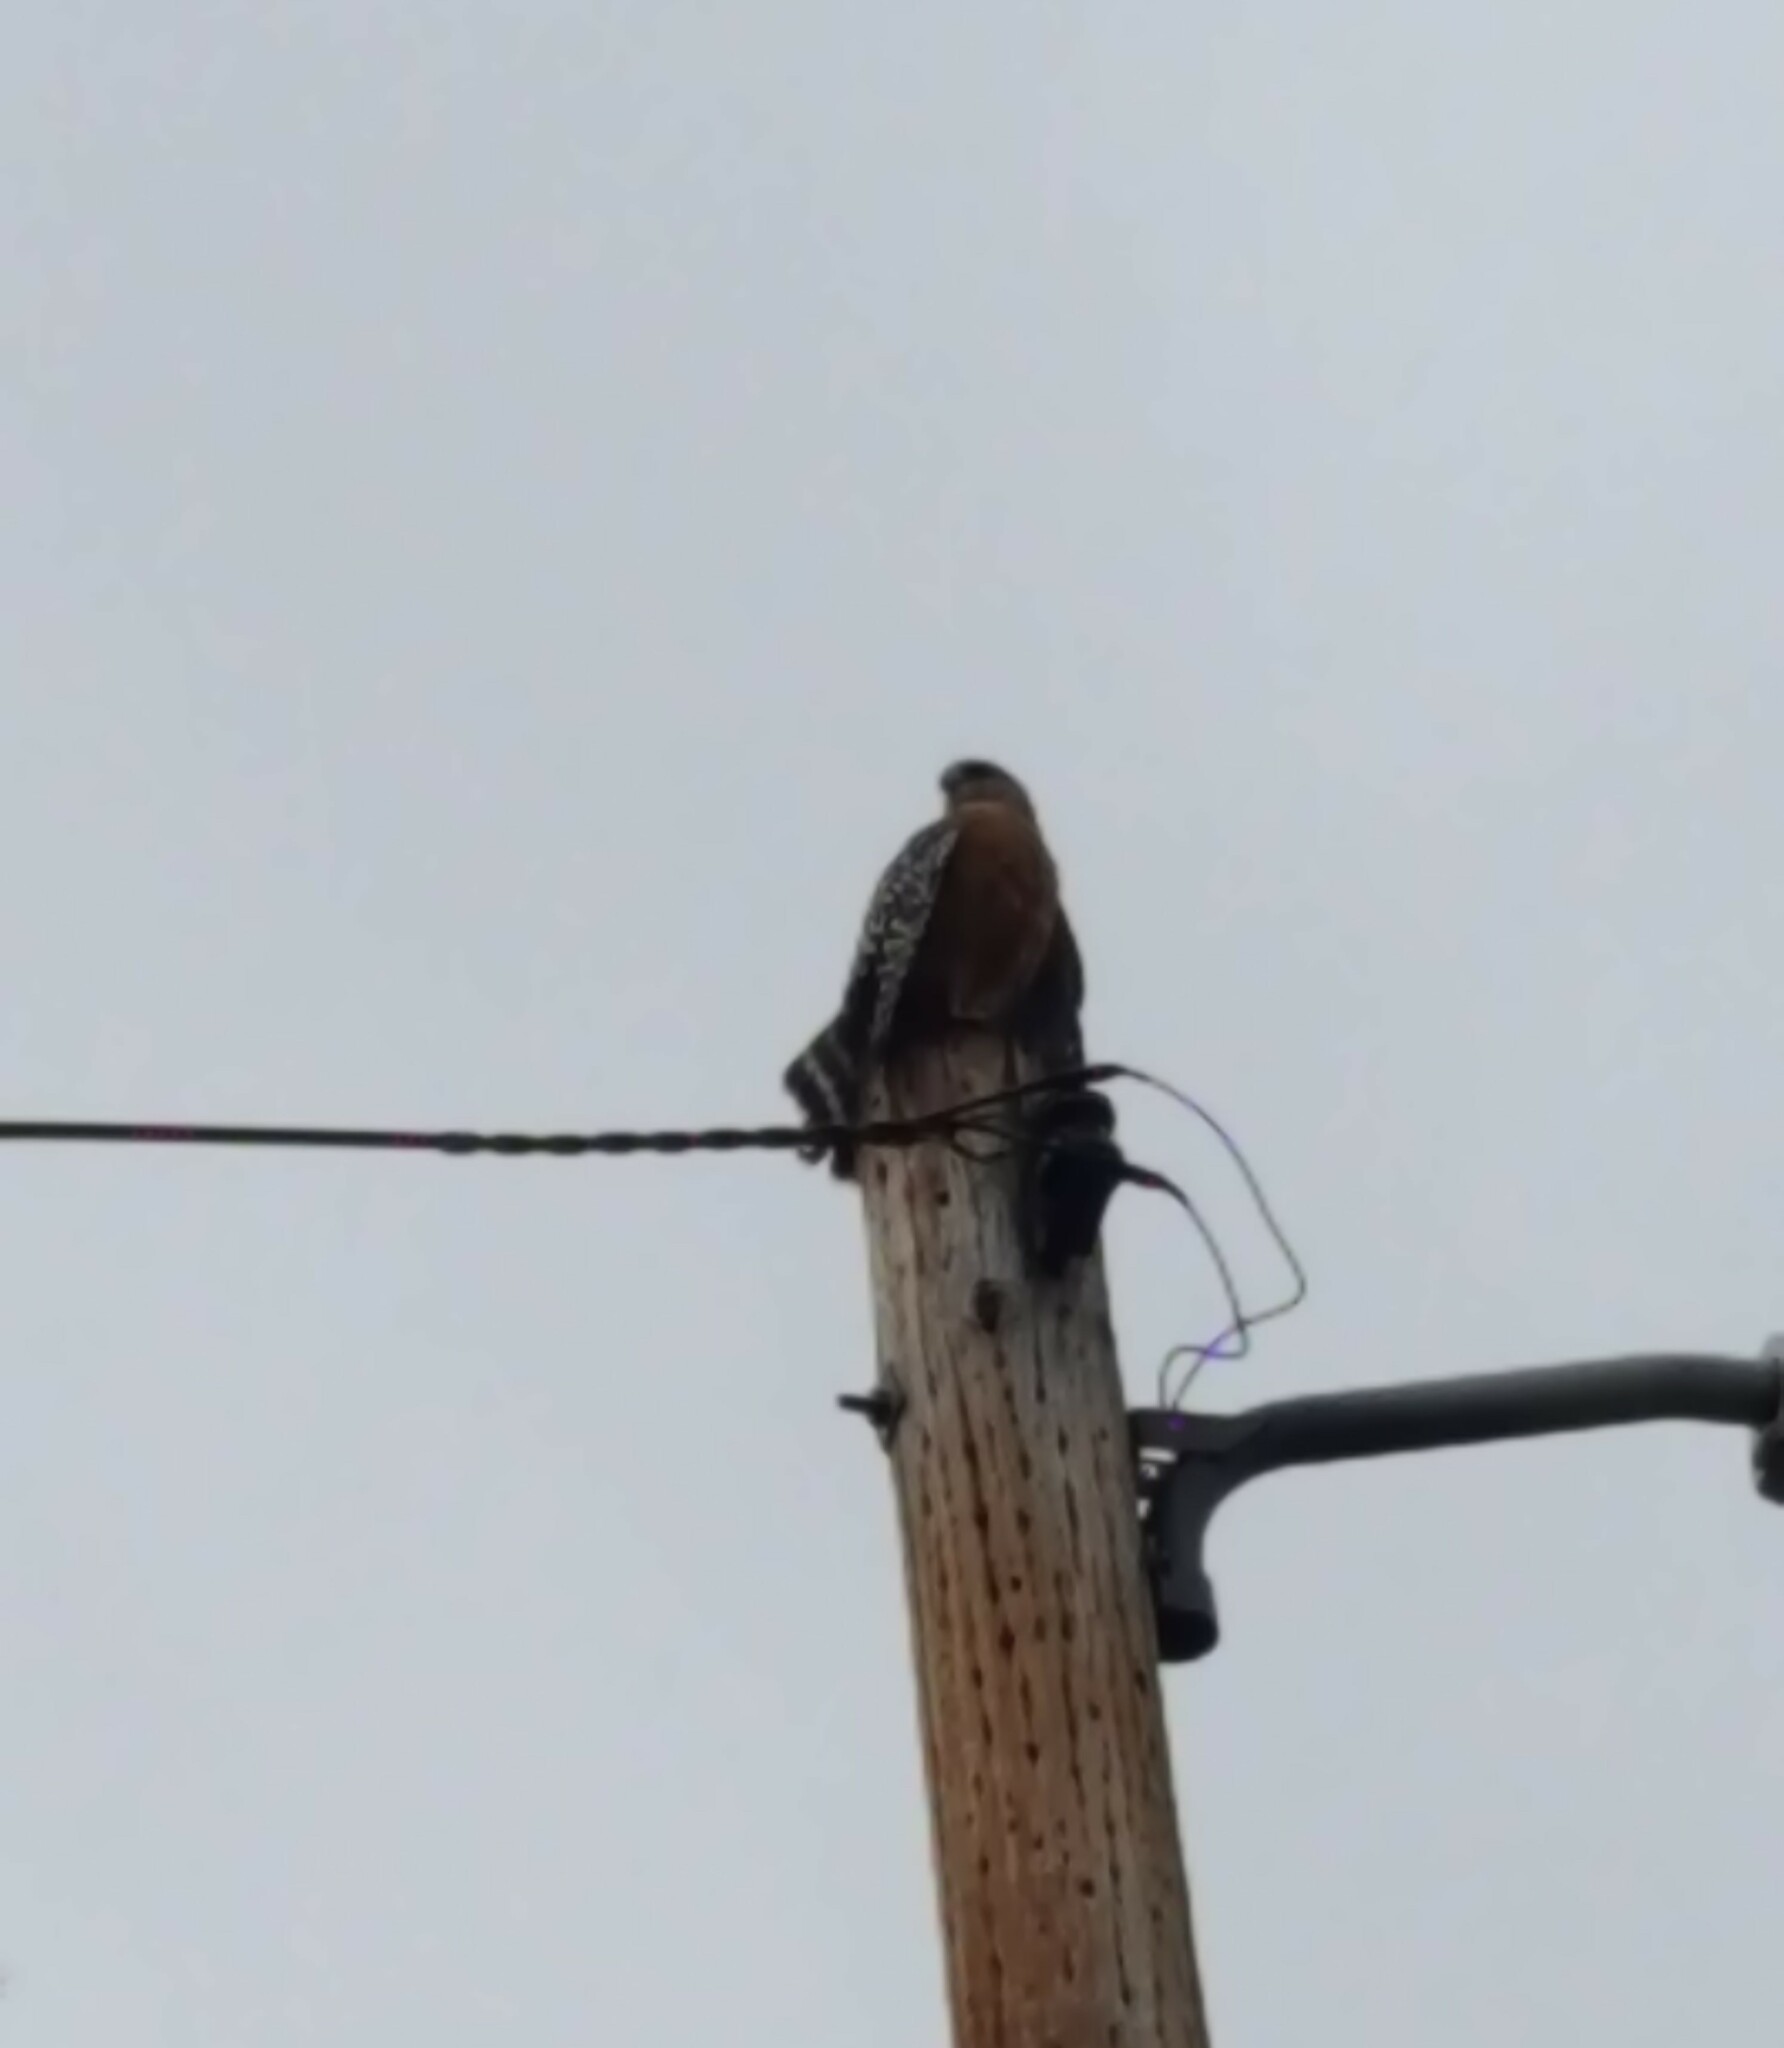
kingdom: Animalia
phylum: Chordata
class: Aves
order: Accipitriformes
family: Accipitridae
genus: Buteo
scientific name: Buteo lineatus
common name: Red-shouldered hawk
